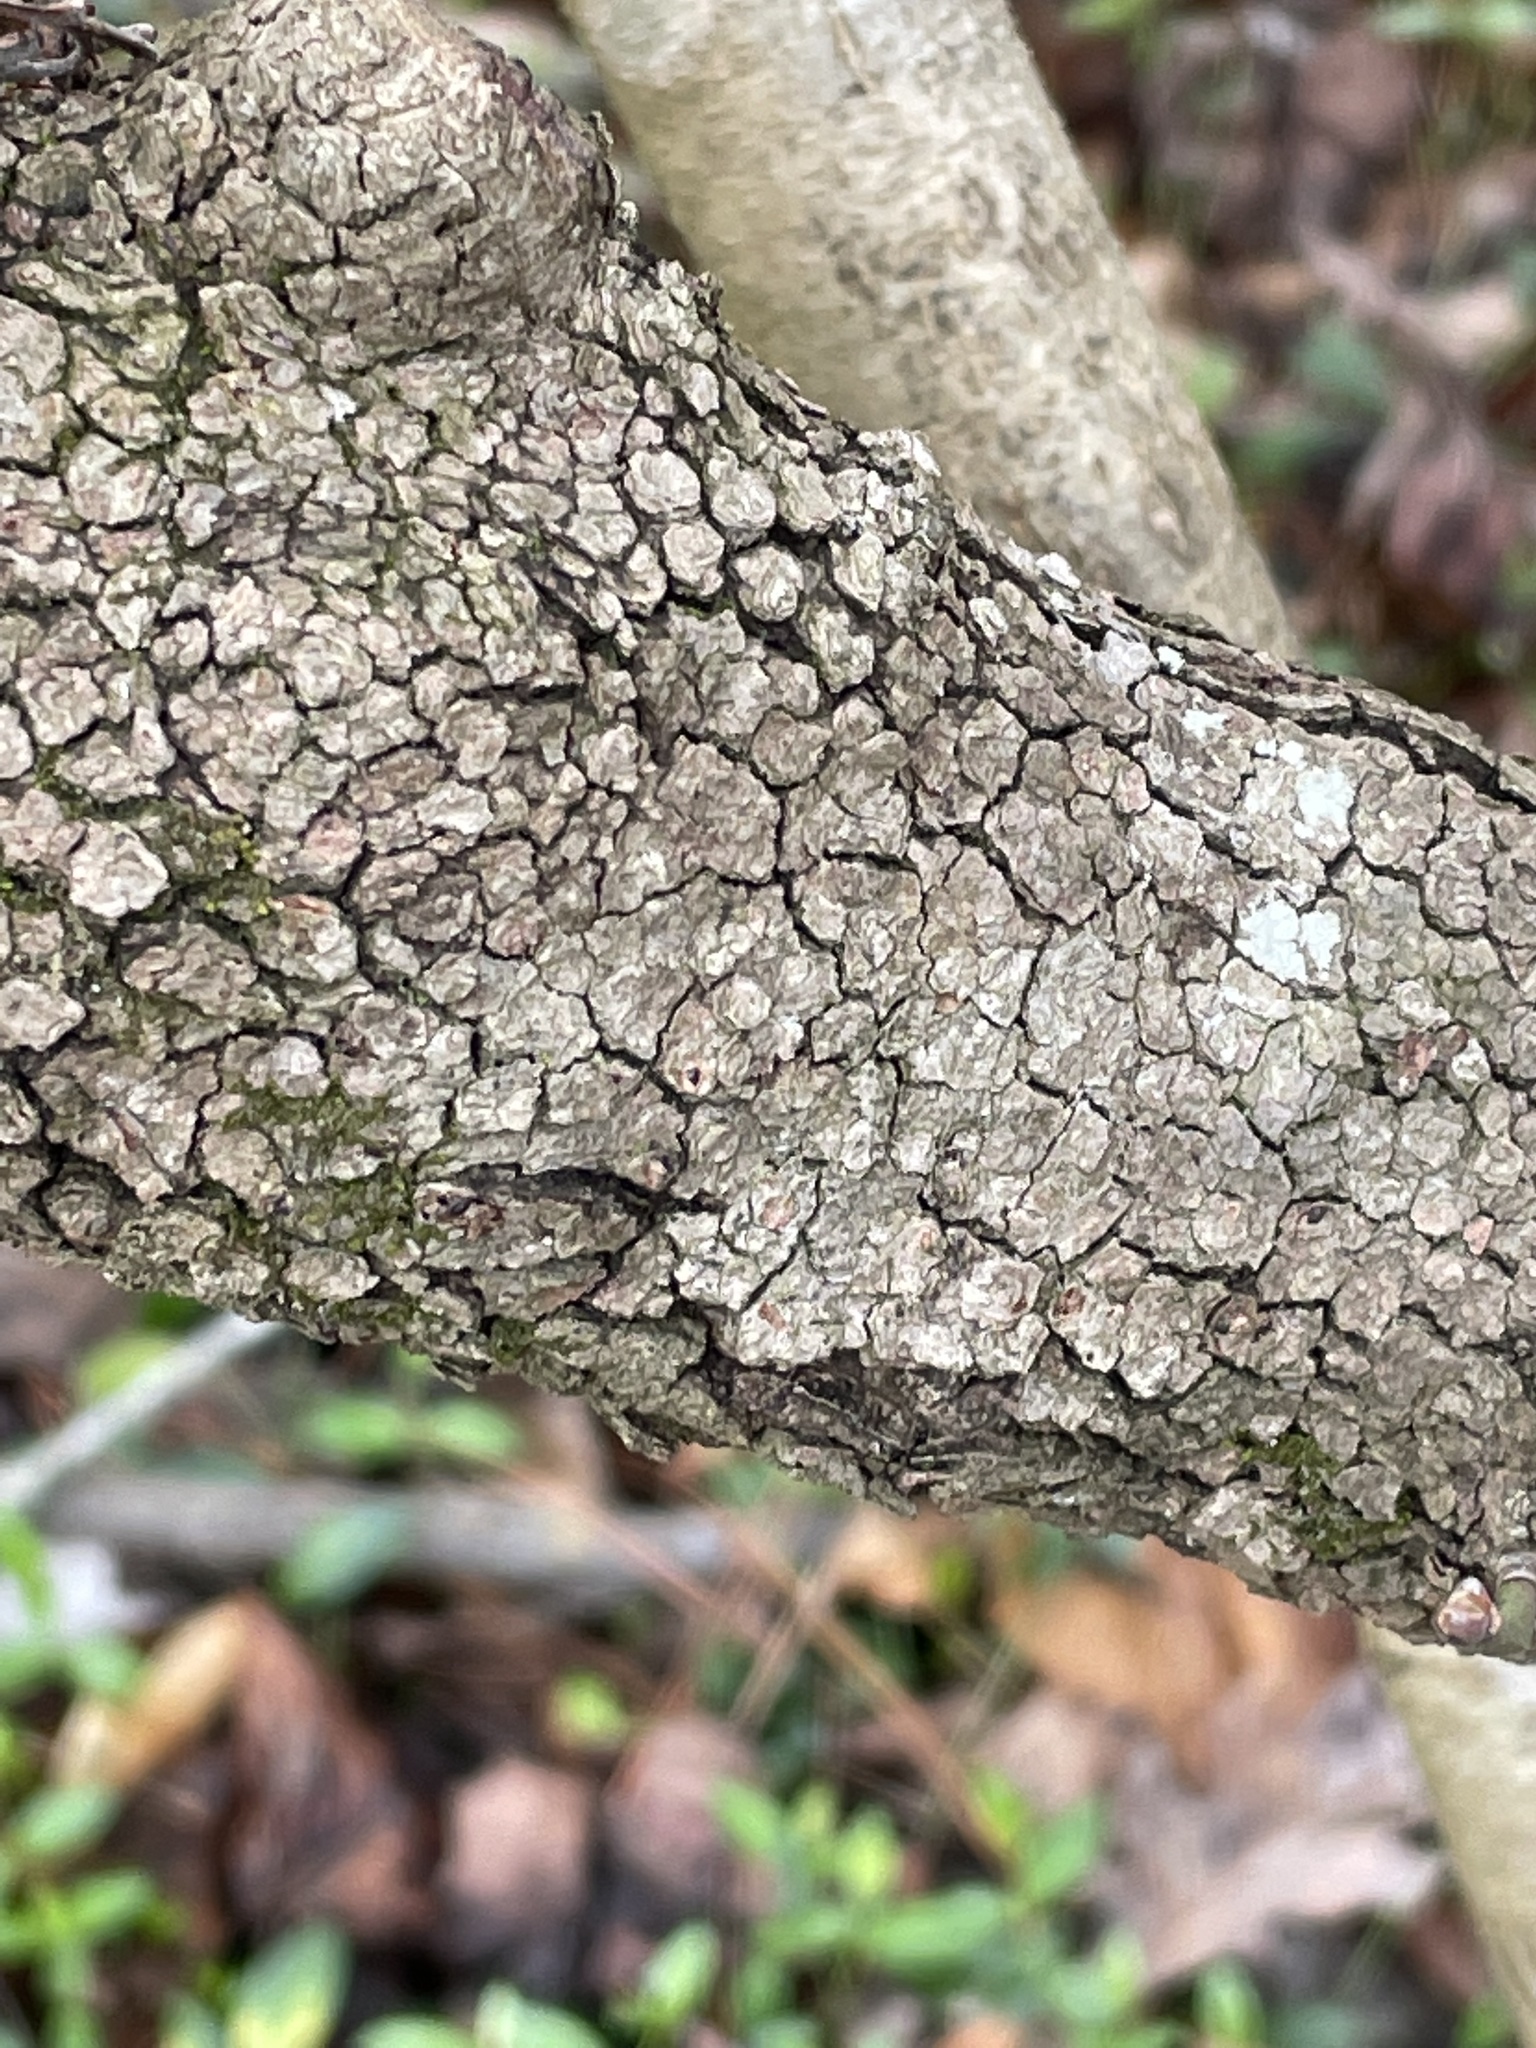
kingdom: Plantae
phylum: Tracheophyta
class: Magnoliopsida
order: Cornales
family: Cornaceae
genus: Cornus
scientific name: Cornus florida
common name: Flowering dogwood
